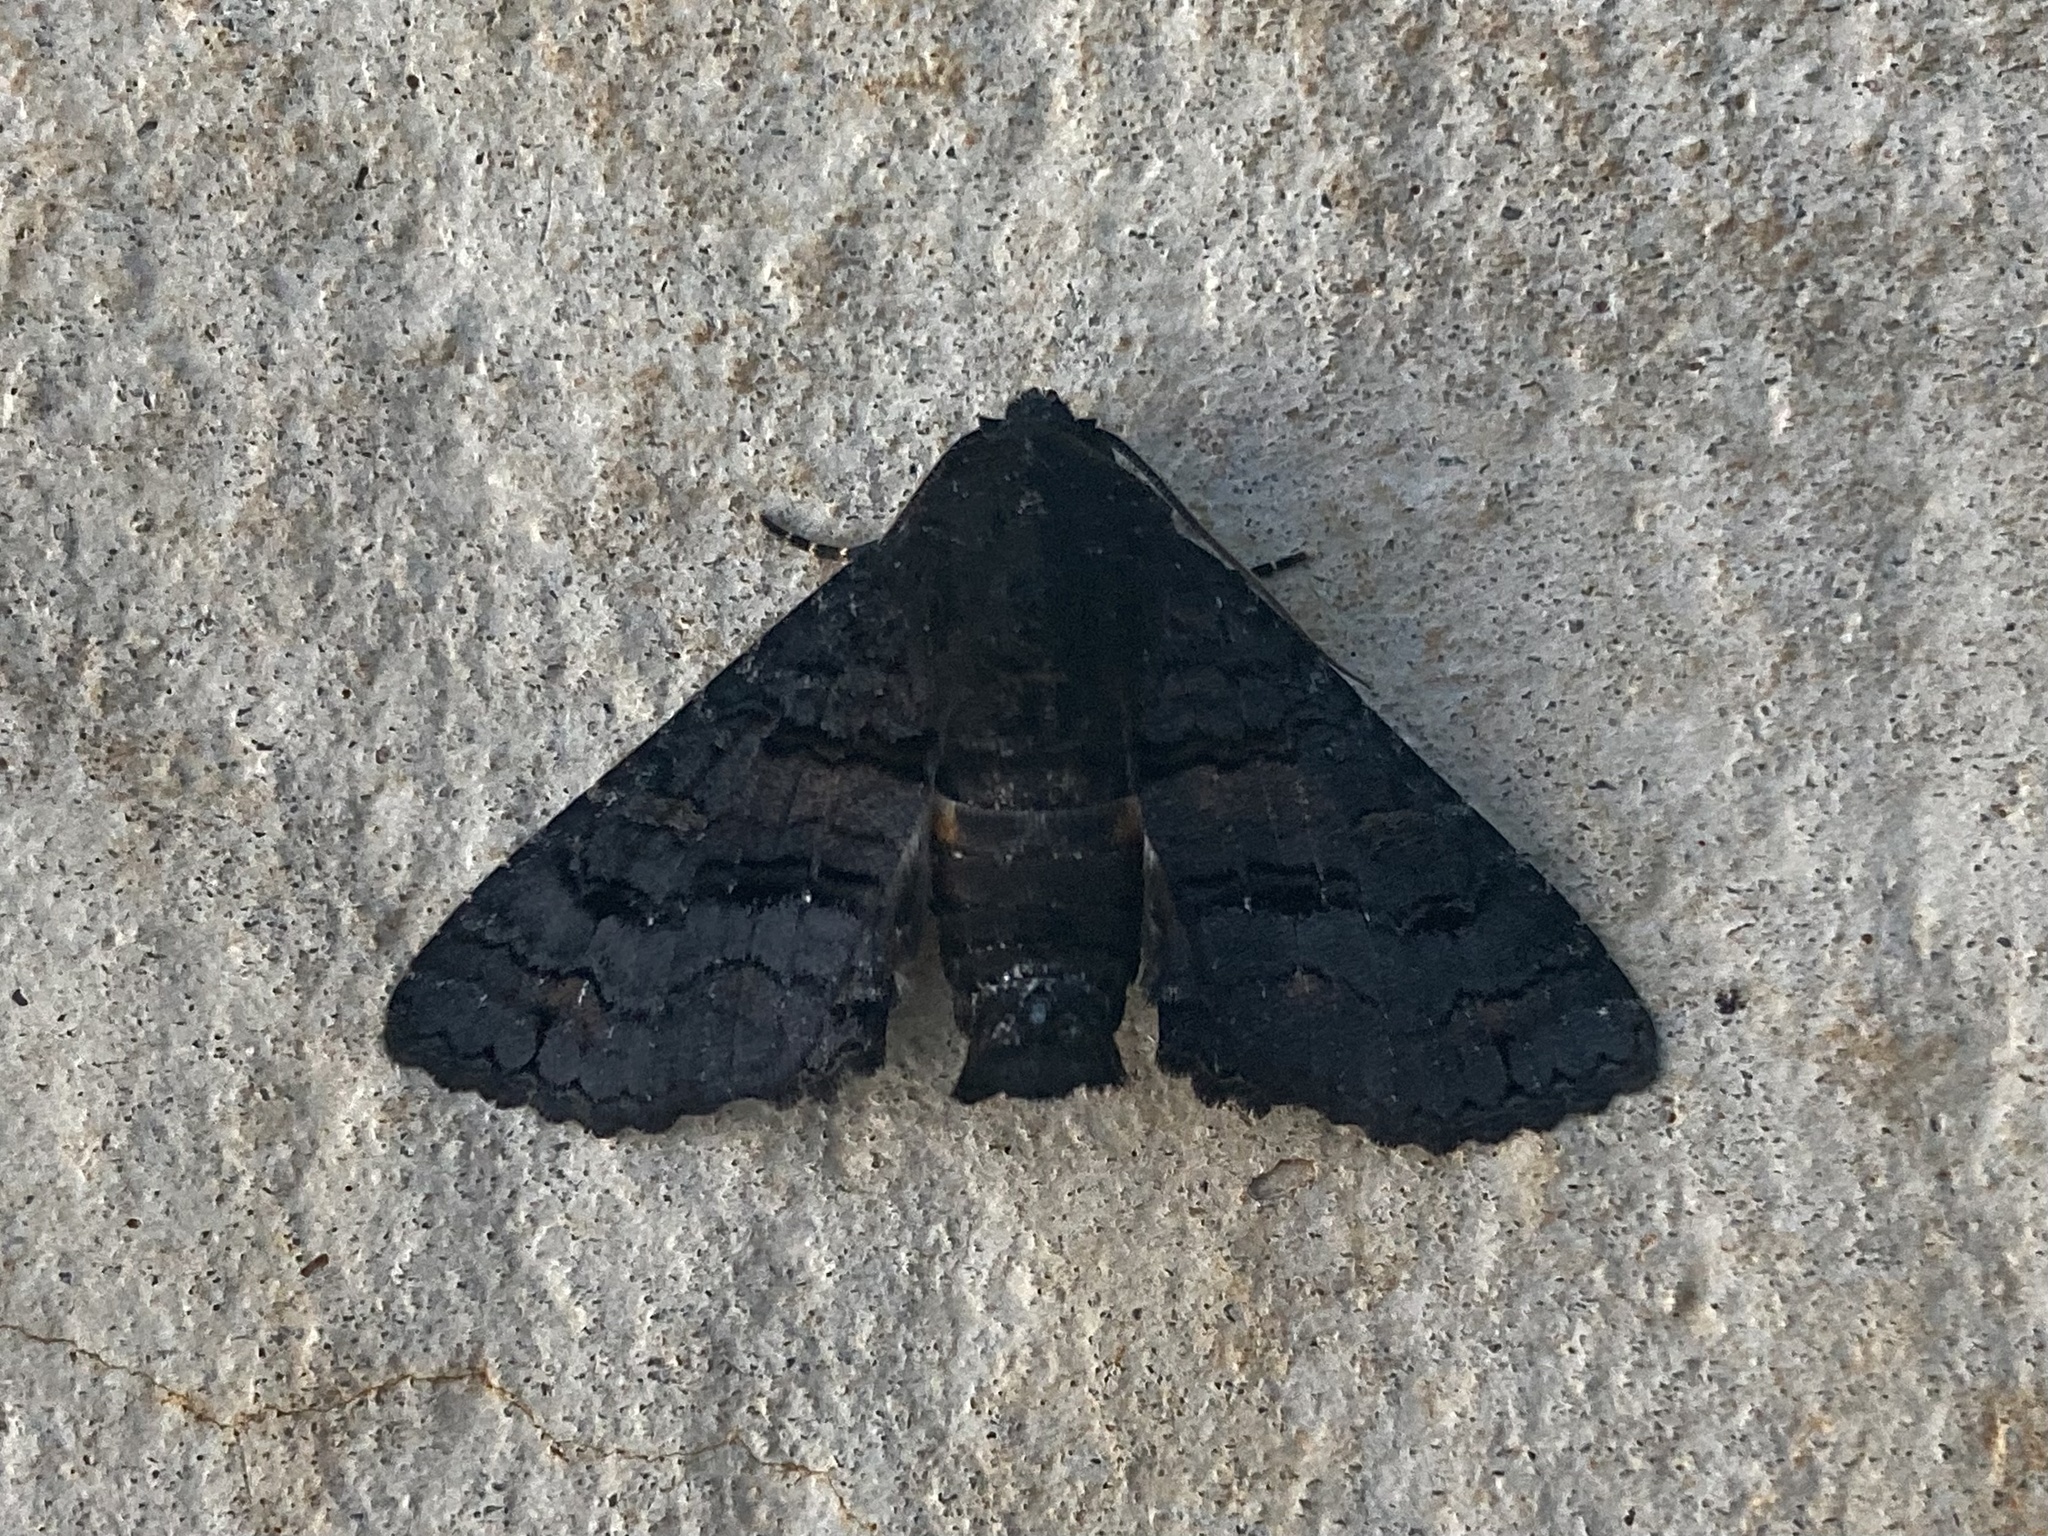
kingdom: Animalia
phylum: Arthropoda
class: Insecta
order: Lepidoptera
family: Euteliidae
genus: Pataeta
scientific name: Pataeta carbo
